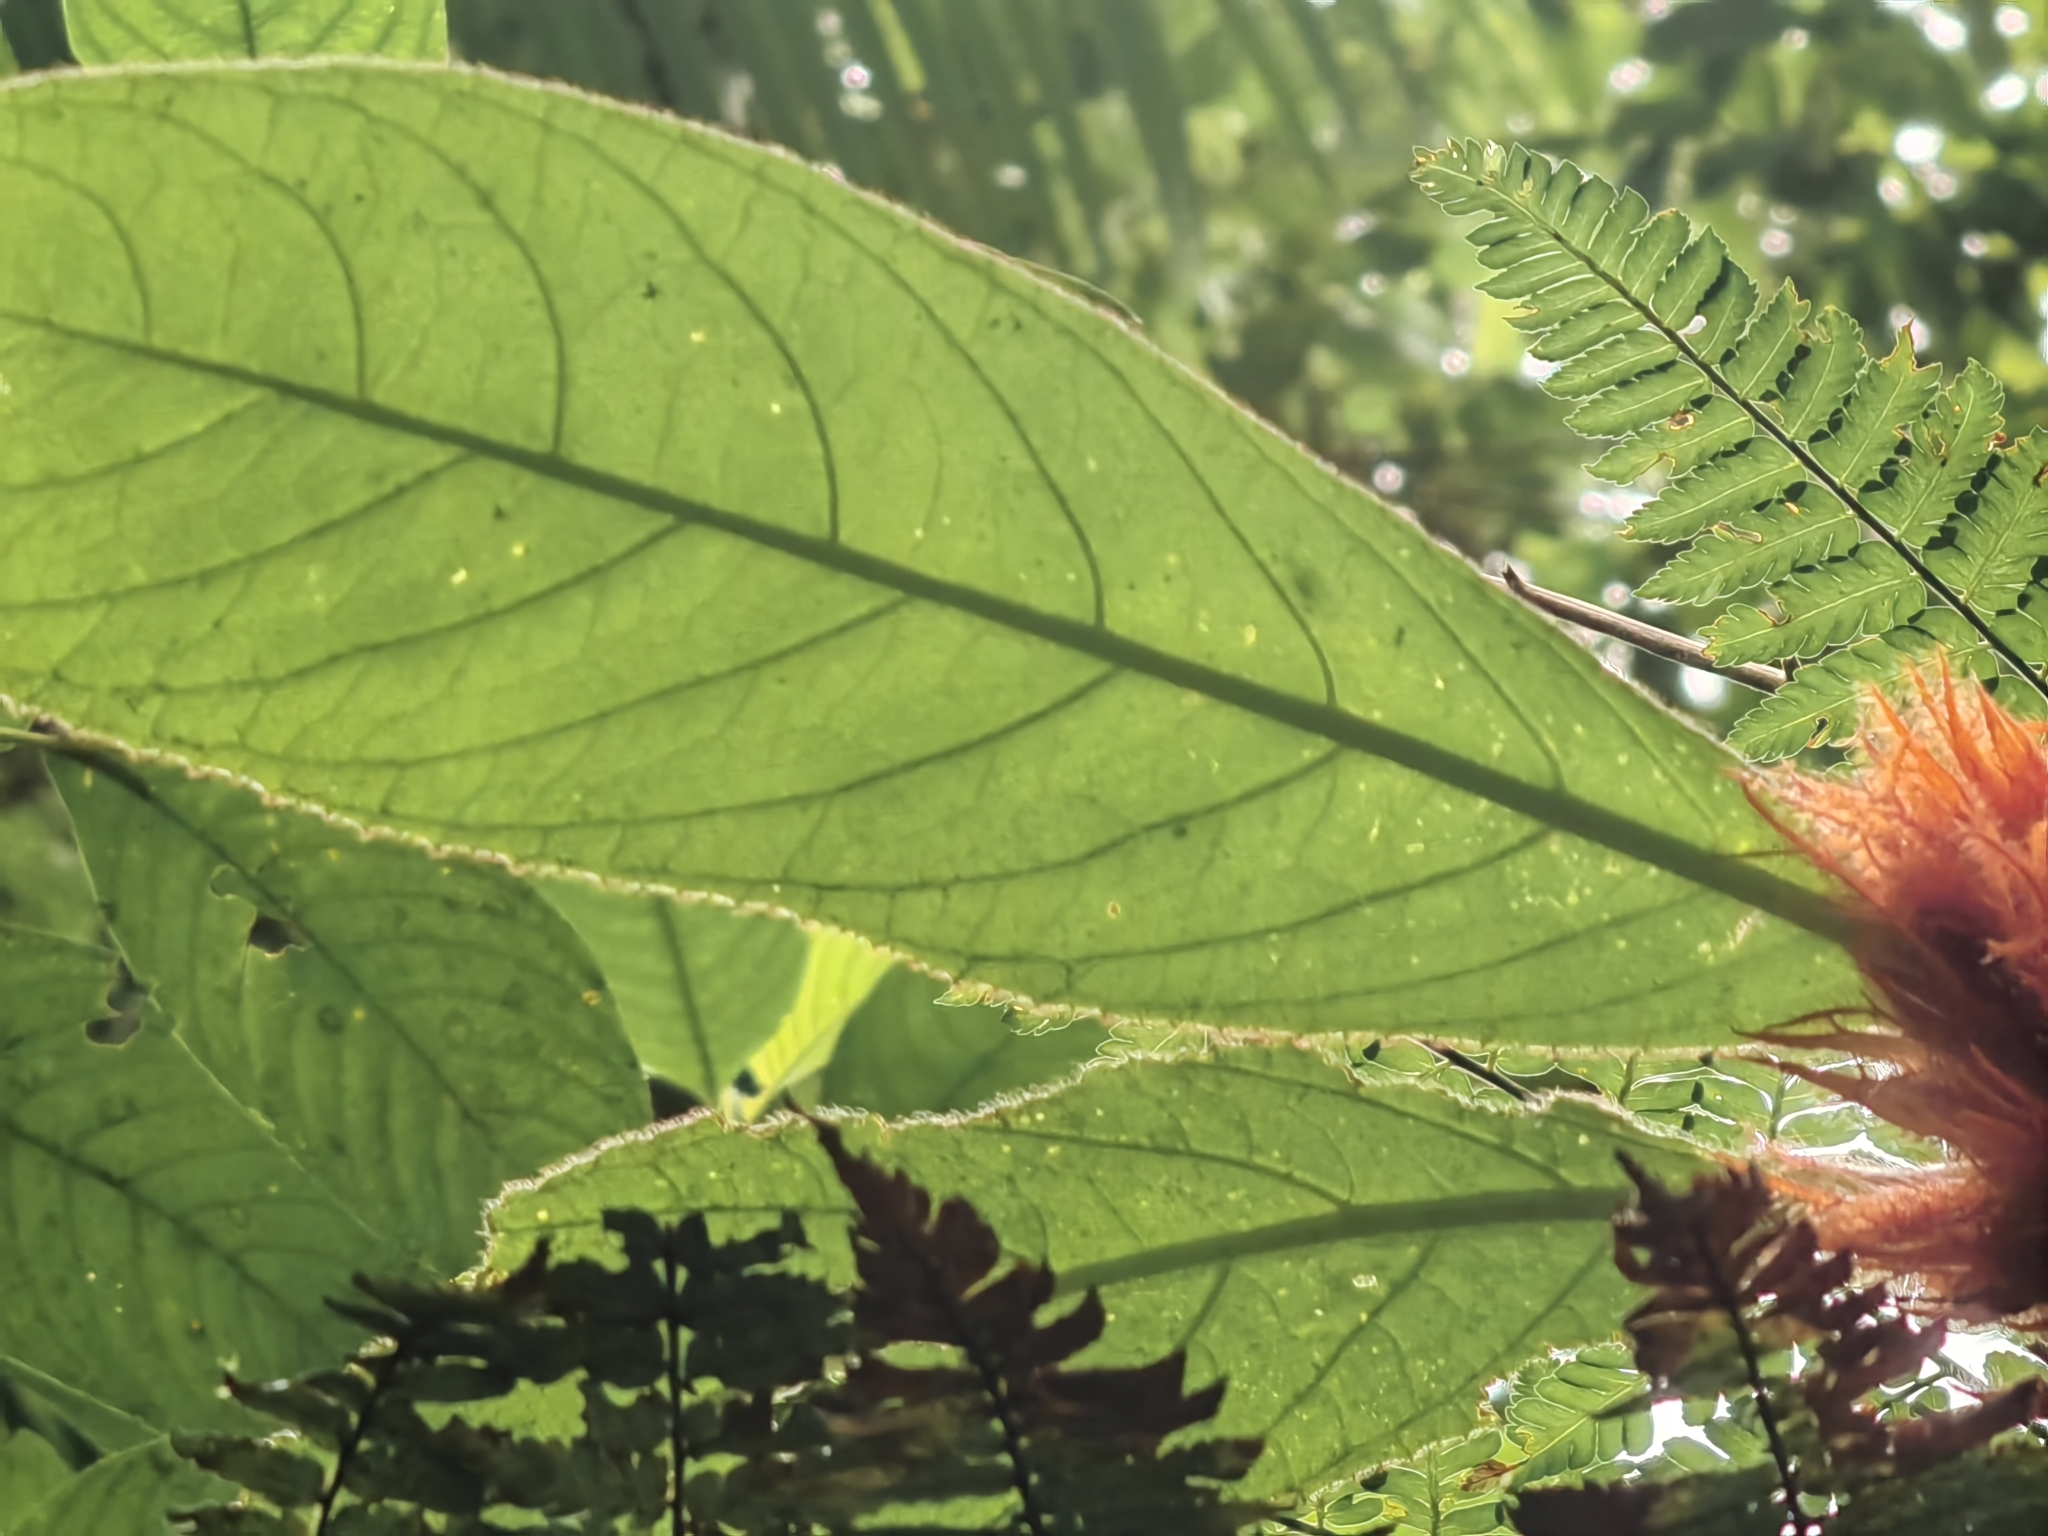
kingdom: Plantae
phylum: Tracheophyta
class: Magnoliopsida
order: Lamiales
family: Lamiaceae
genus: Clerodendrum
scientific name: Clerodendrum quadriloculare
